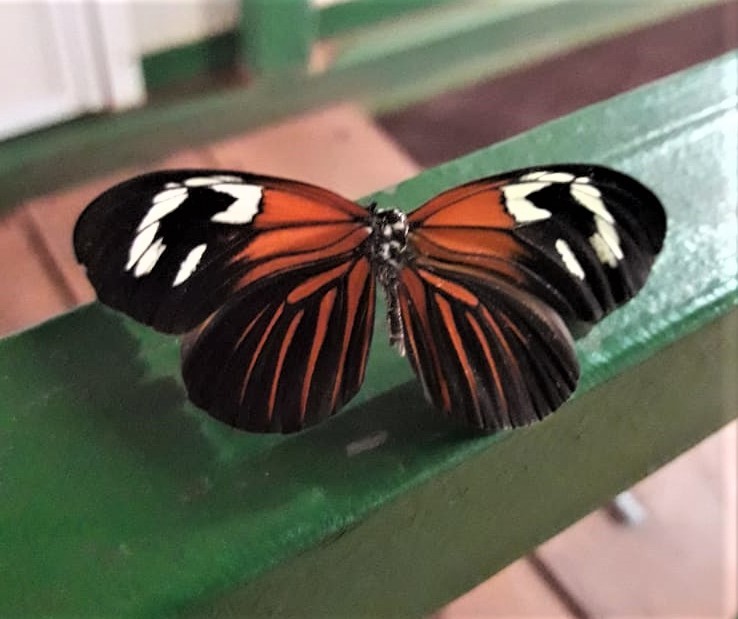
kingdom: Animalia
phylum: Arthropoda
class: Insecta
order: Lepidoptera
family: Nymphalidae
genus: Heliconius
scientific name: Heliconius erato
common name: Common patch longwing
